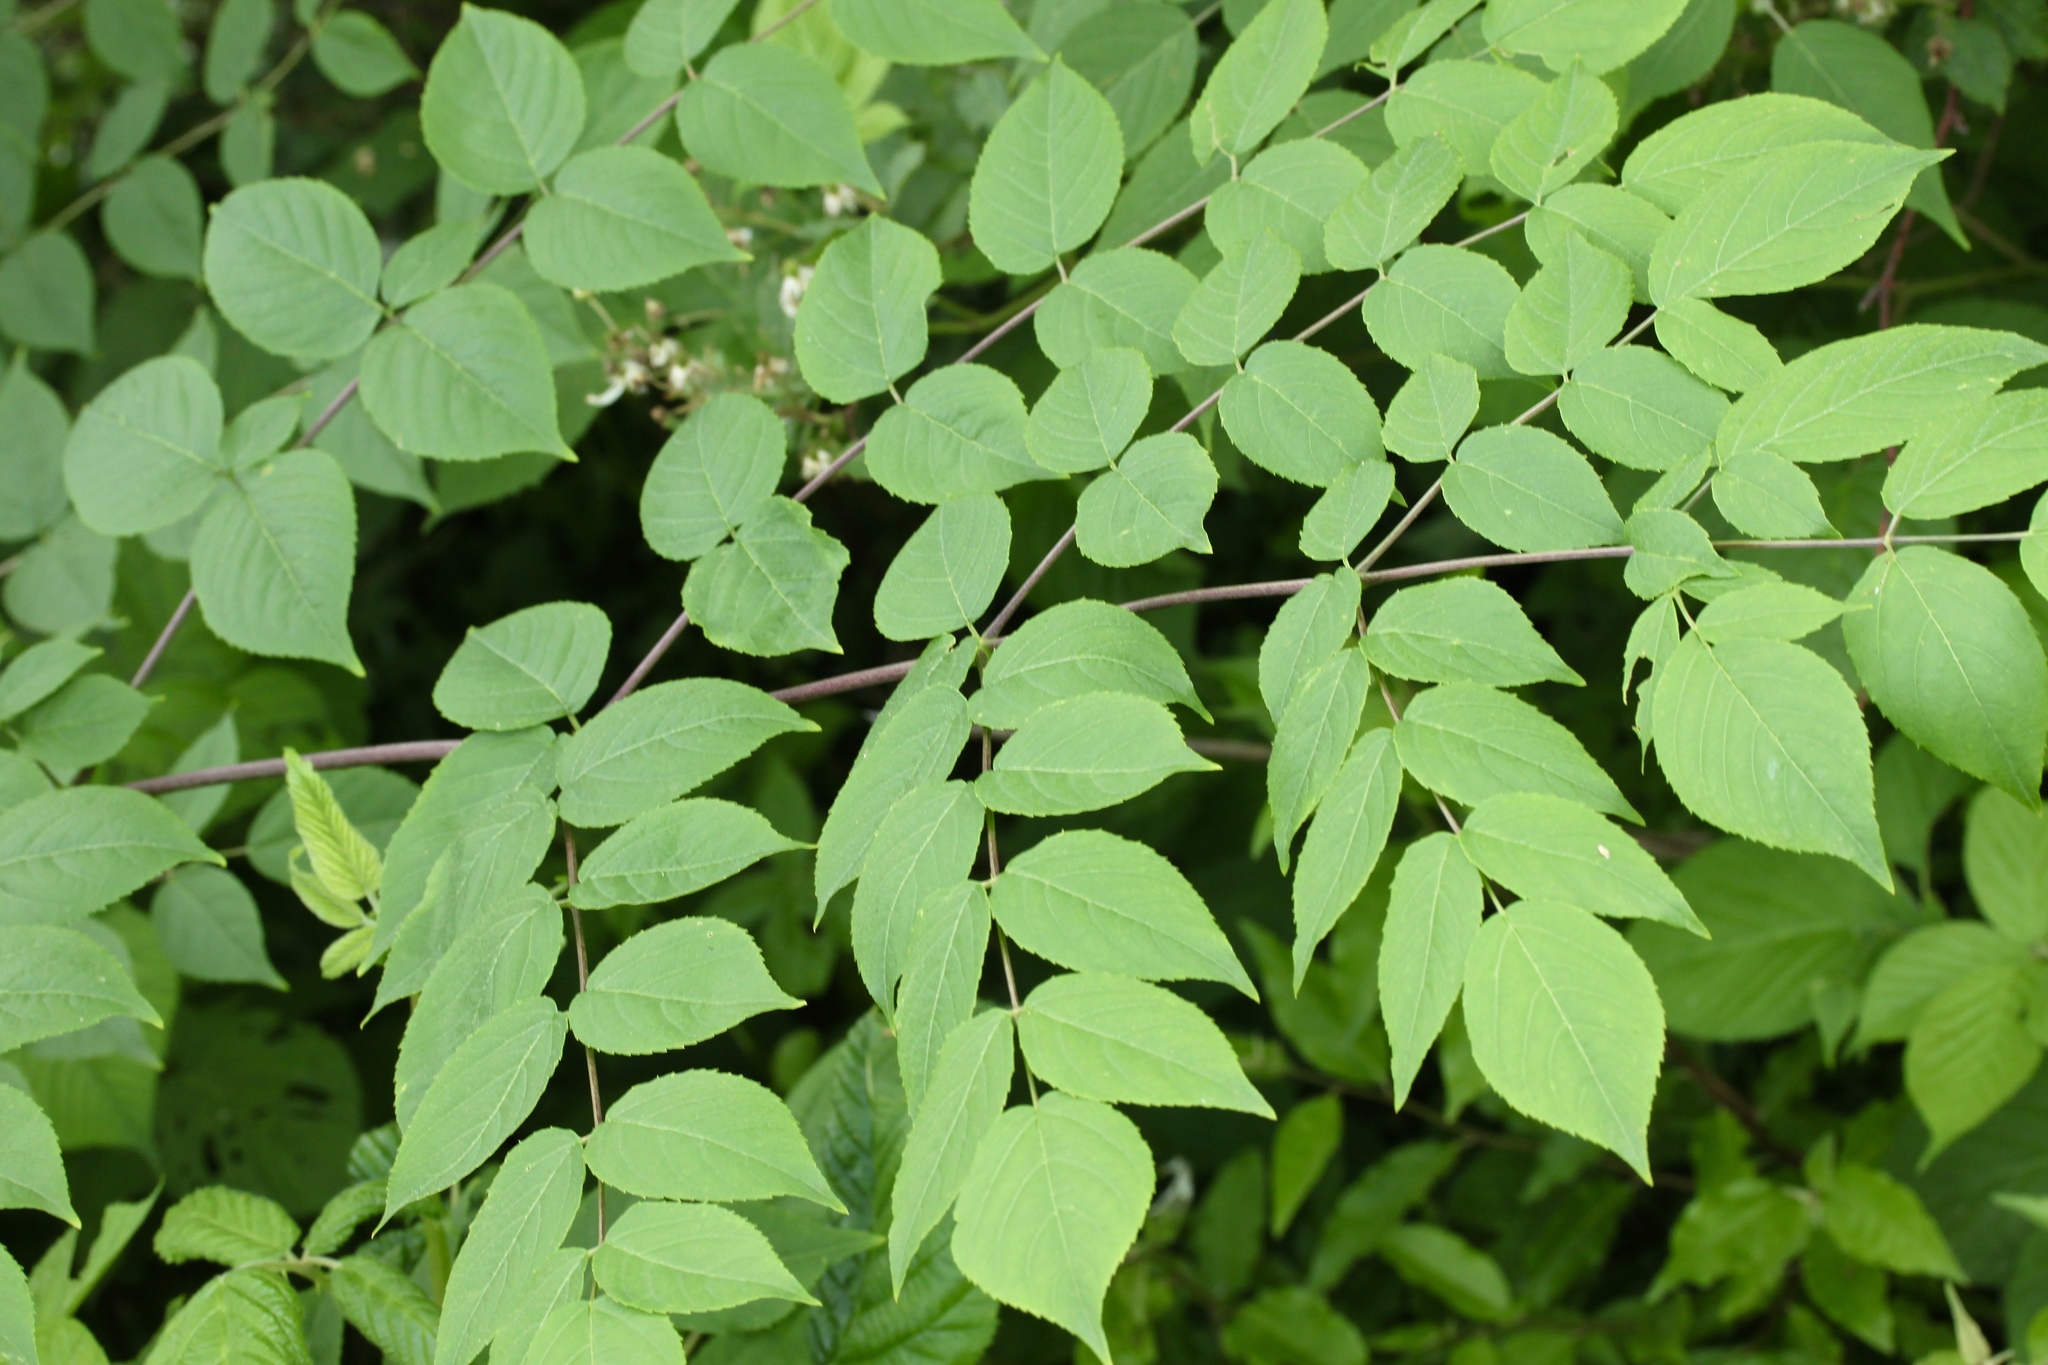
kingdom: Plantae
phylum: Tracheophyta
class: Magnoliopsida
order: Apiales
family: Araliaceae
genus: Aralia
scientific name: Aralia spinosa
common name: Hercules'-club
